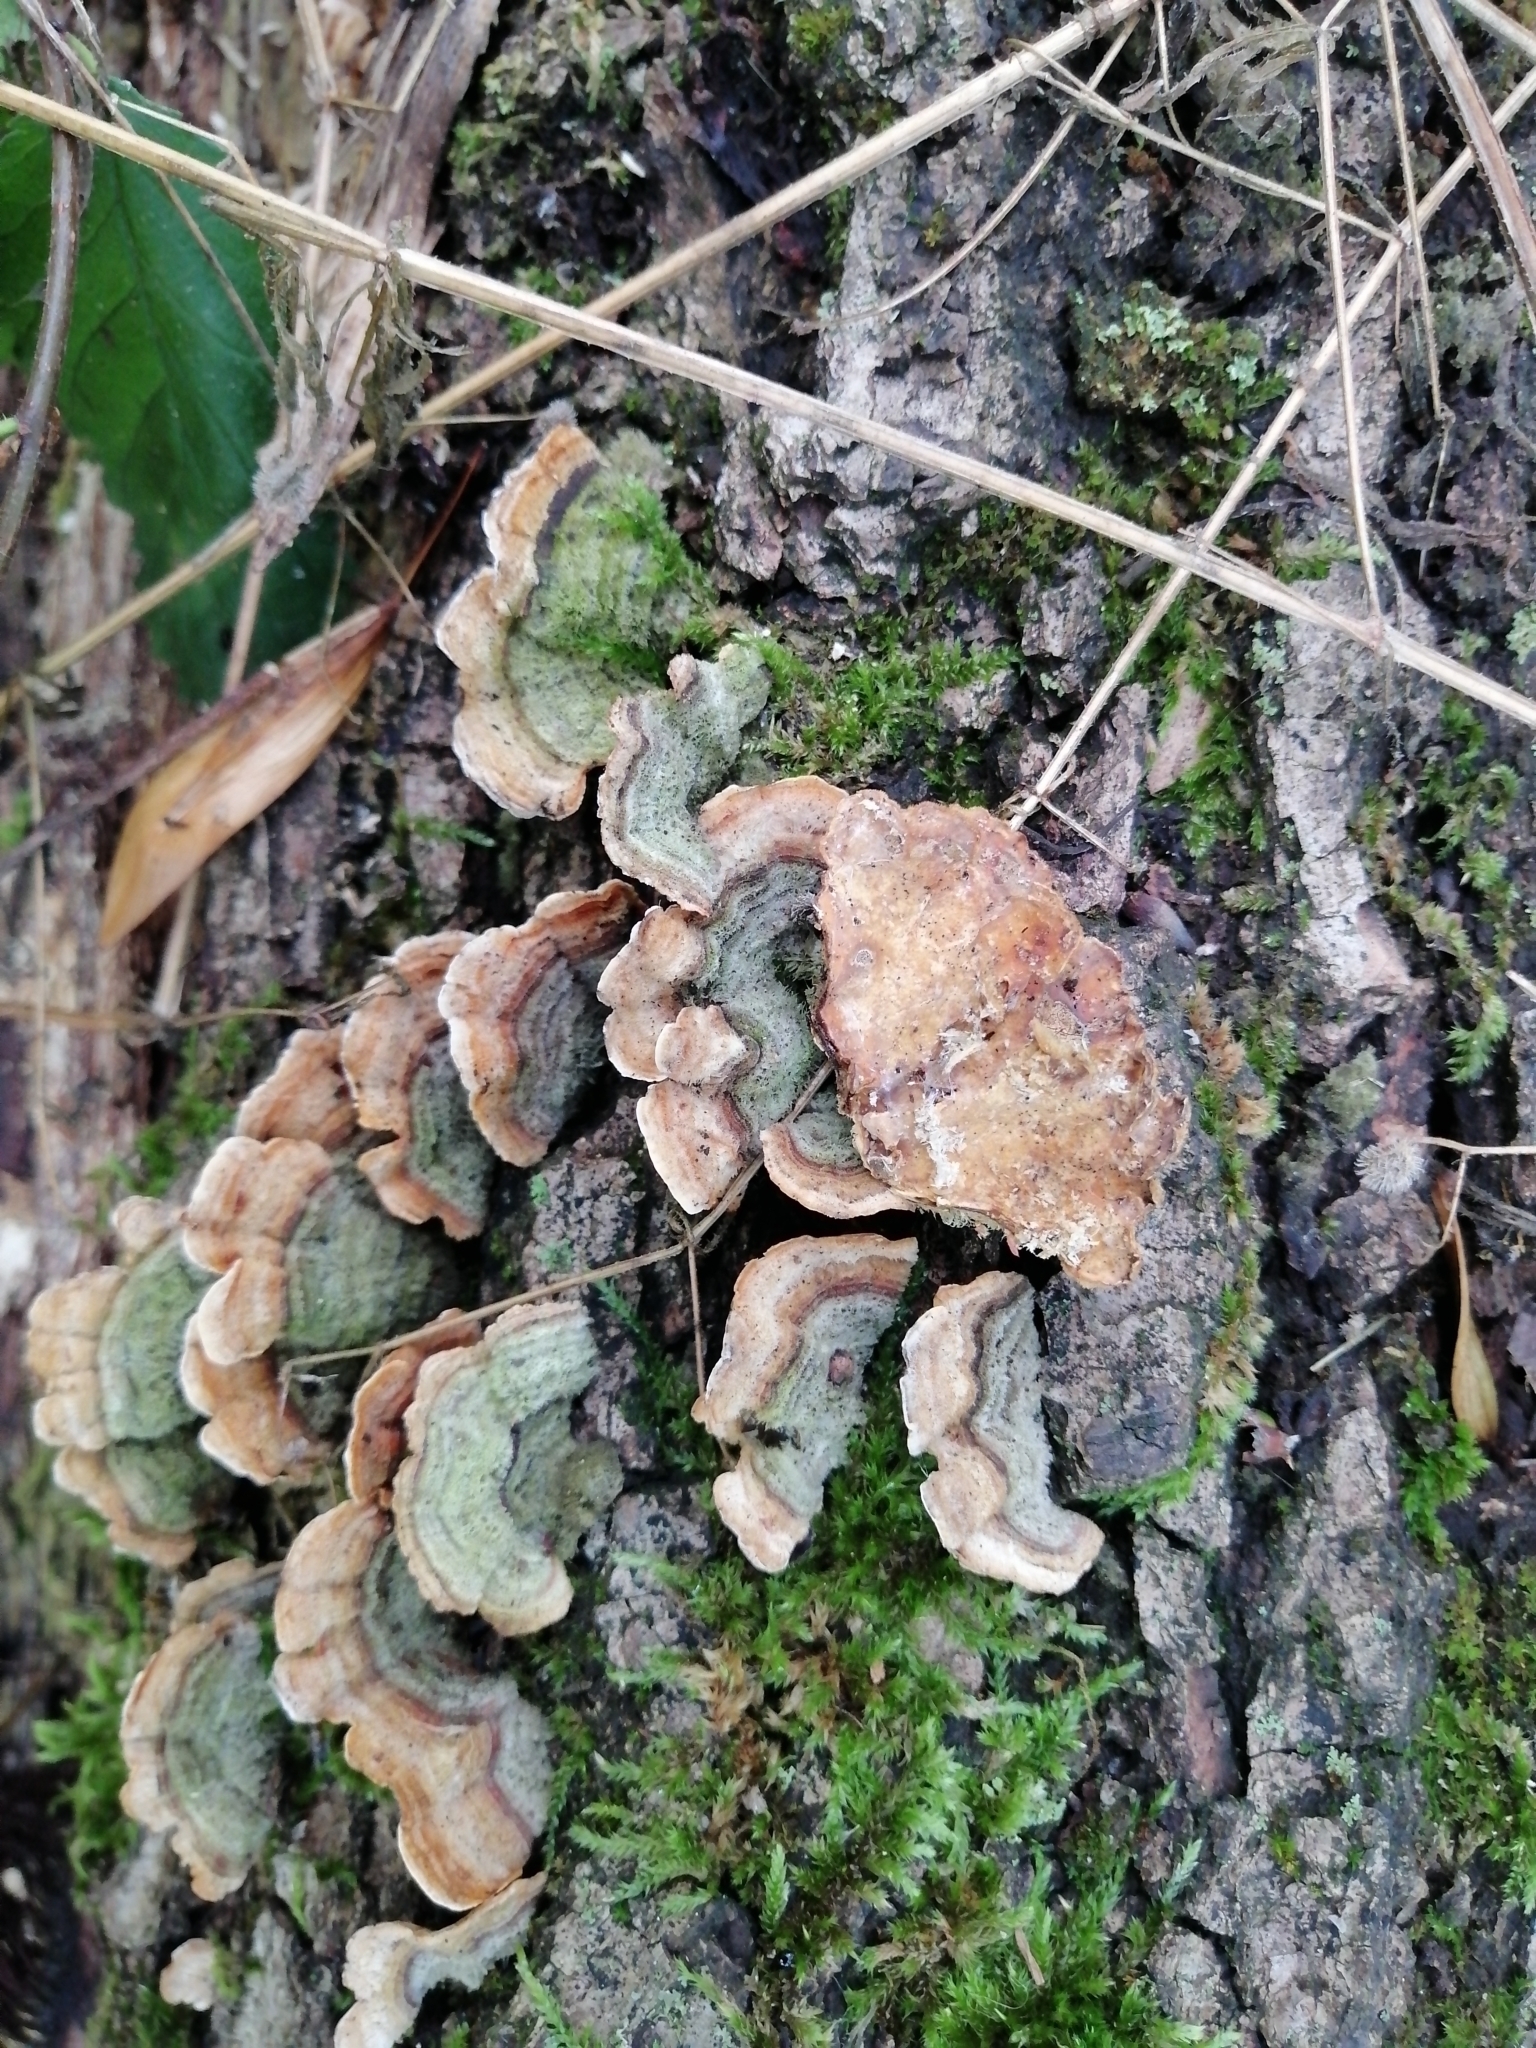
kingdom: Fungi
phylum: Basidiomycota
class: Agaricomycetes
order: Russulales
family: Stereaceae
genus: Stereum
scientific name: Stereum hirsutum
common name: Hairy curtain crust
